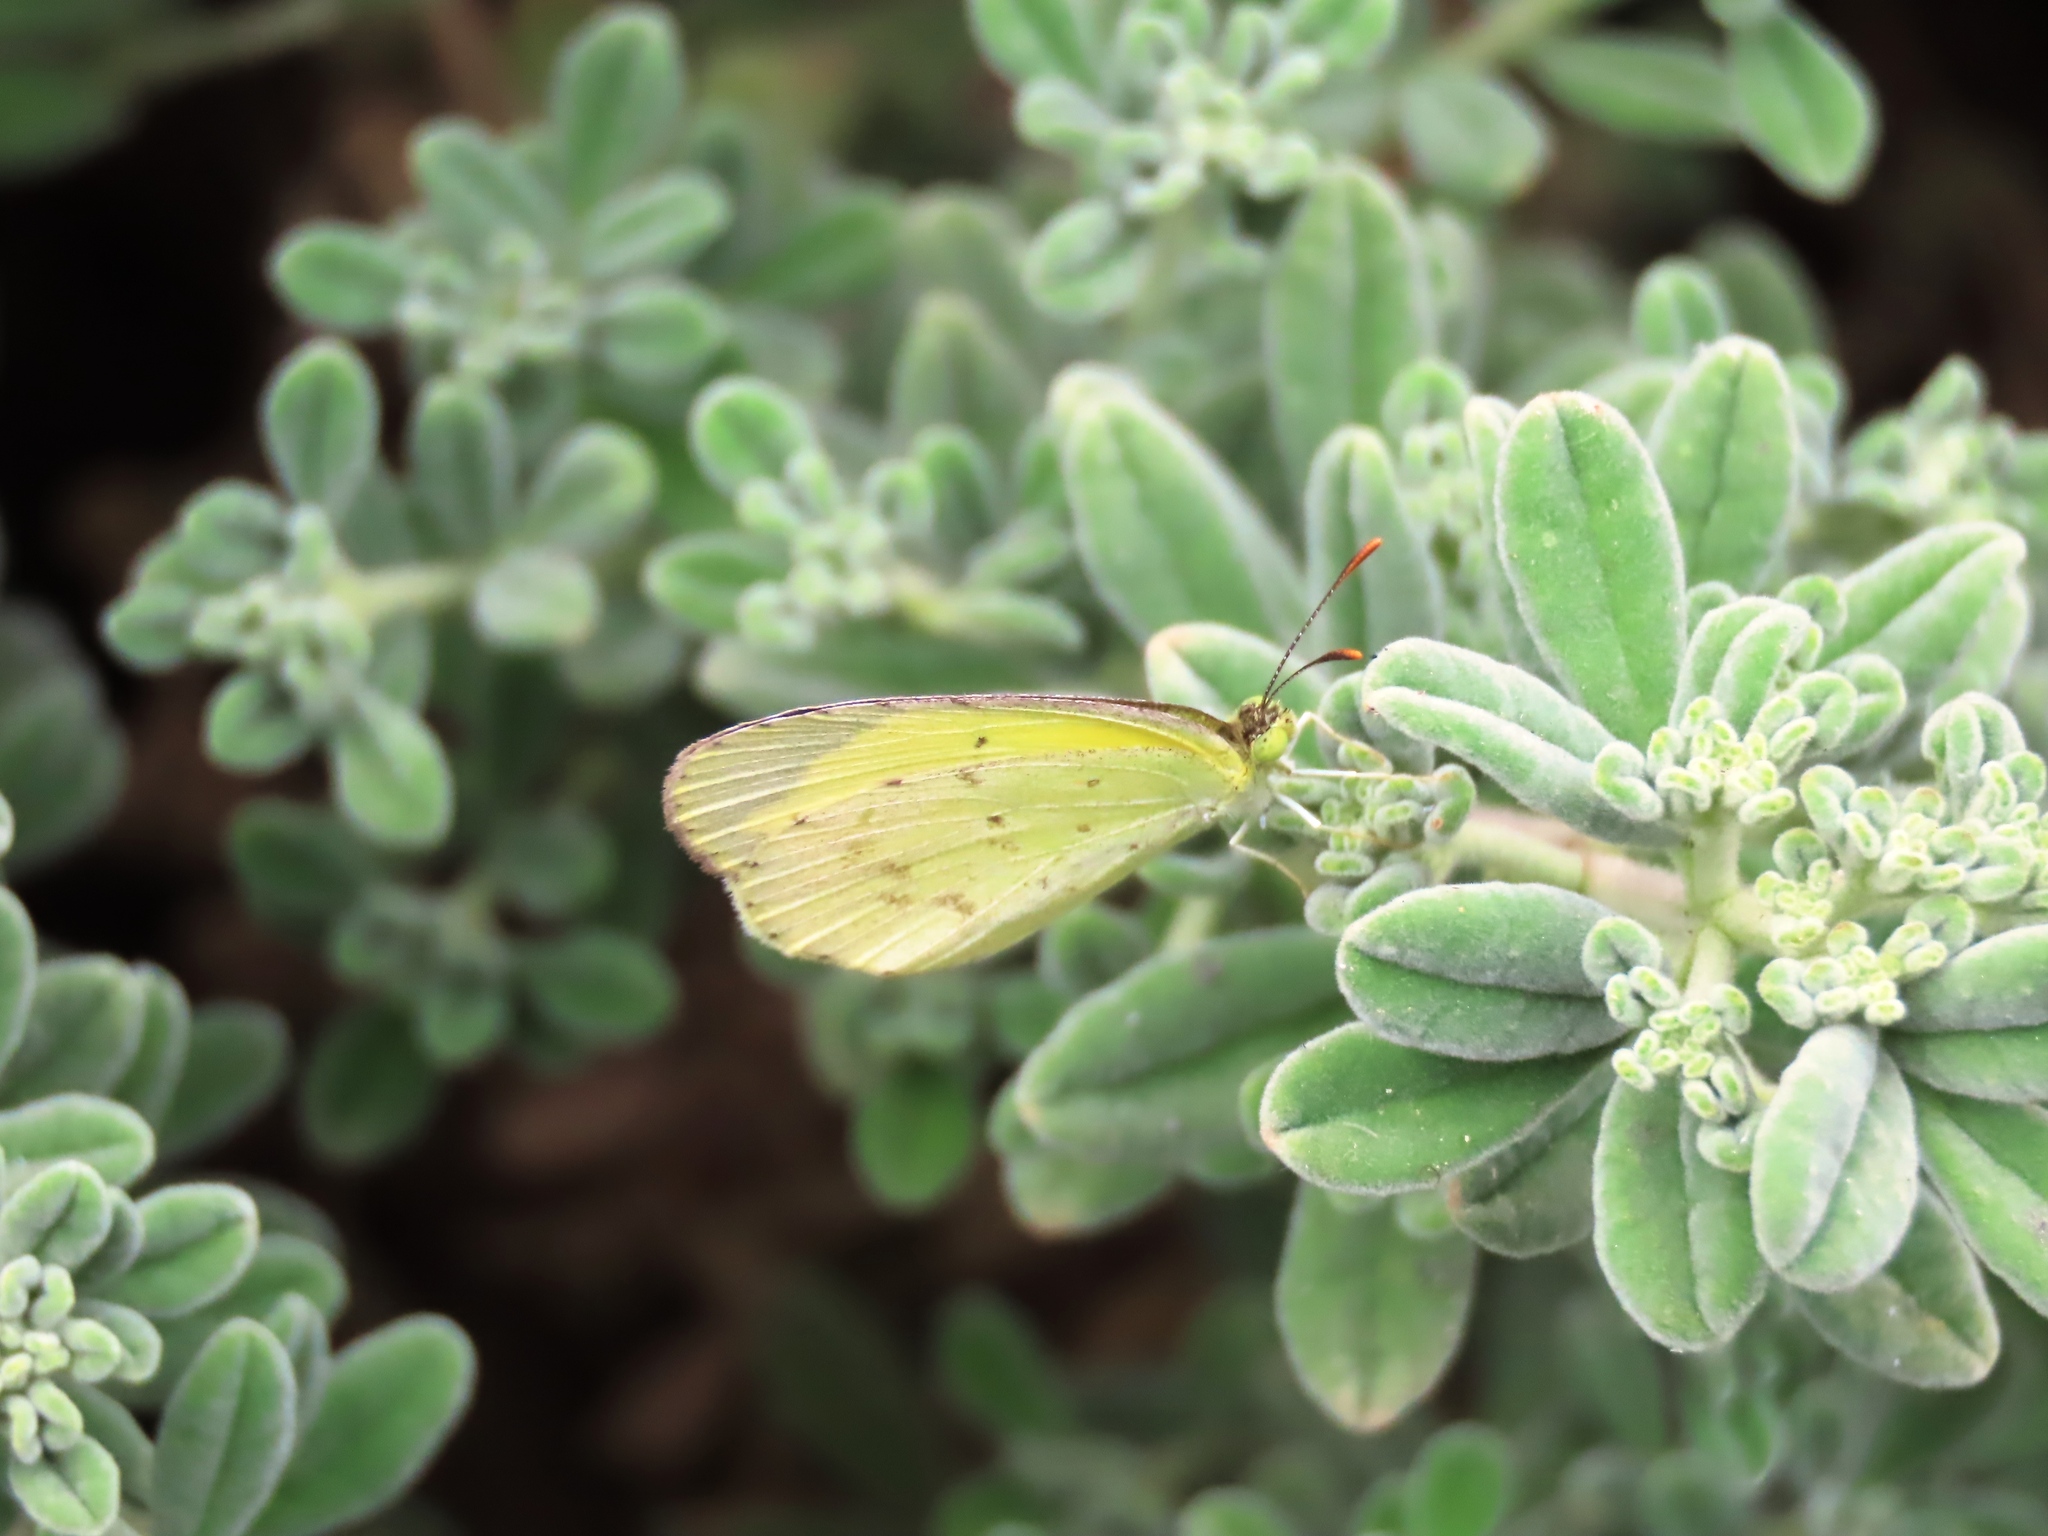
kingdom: Animalia
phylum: Arthropoda
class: Insecta
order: Lepidoptera
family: Pieridae
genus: Eurema
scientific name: Eurema smilax
